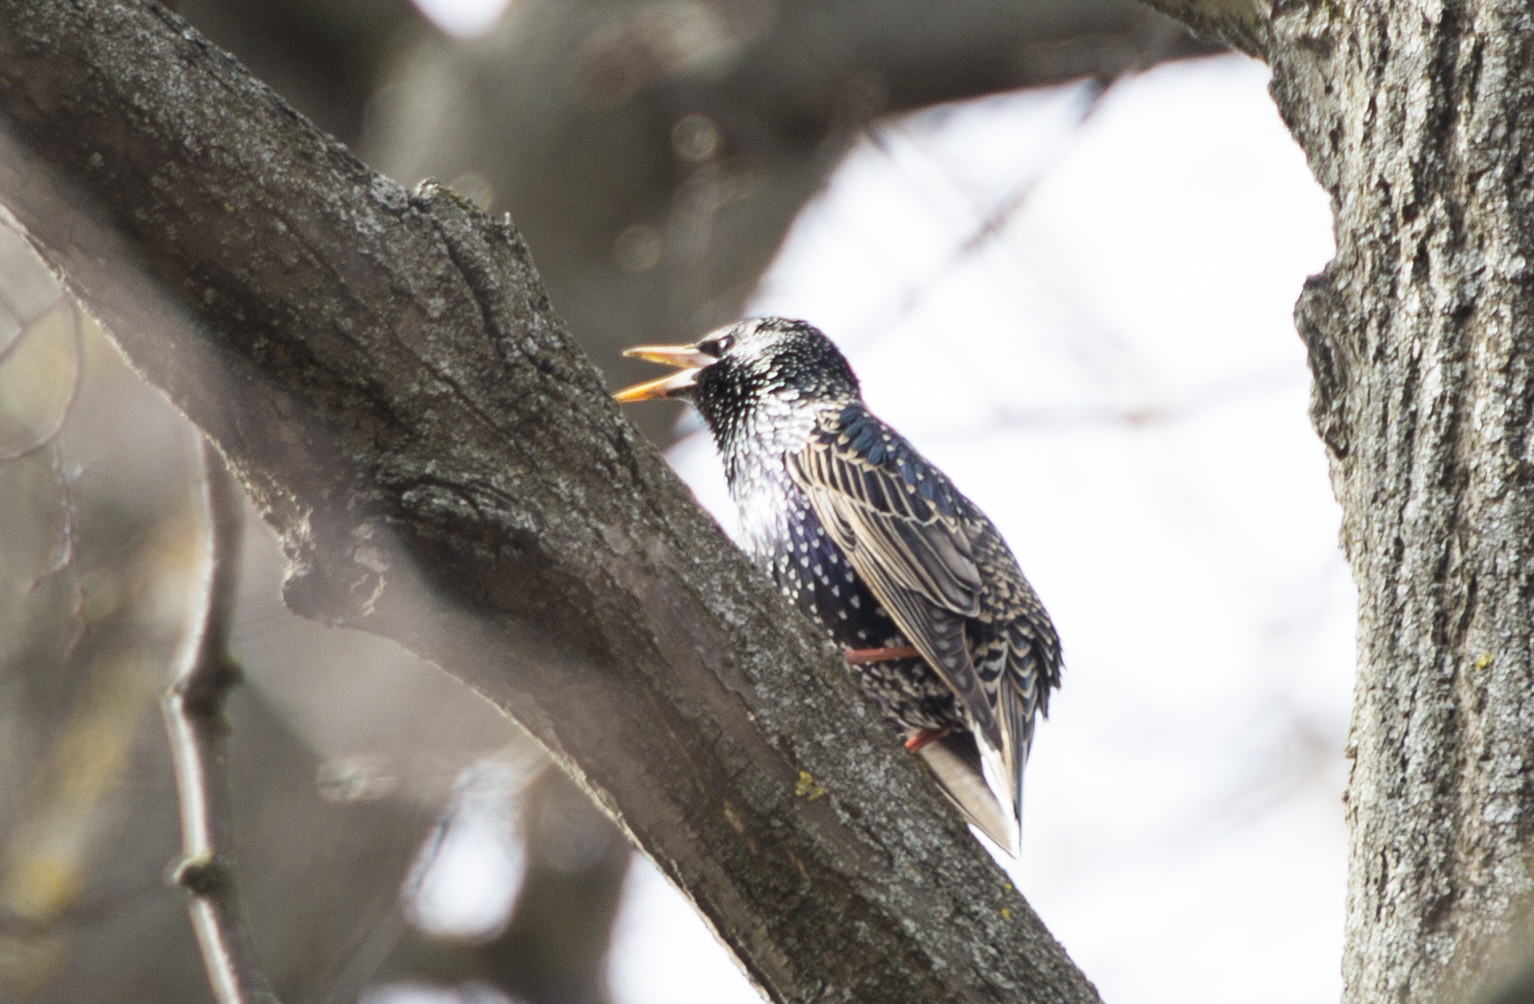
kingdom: Animalia
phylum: Chordata
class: Aves
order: Passeriformes
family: Sturnidae
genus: Sturnus
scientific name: Sturnus vulgaris
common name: Common starling
